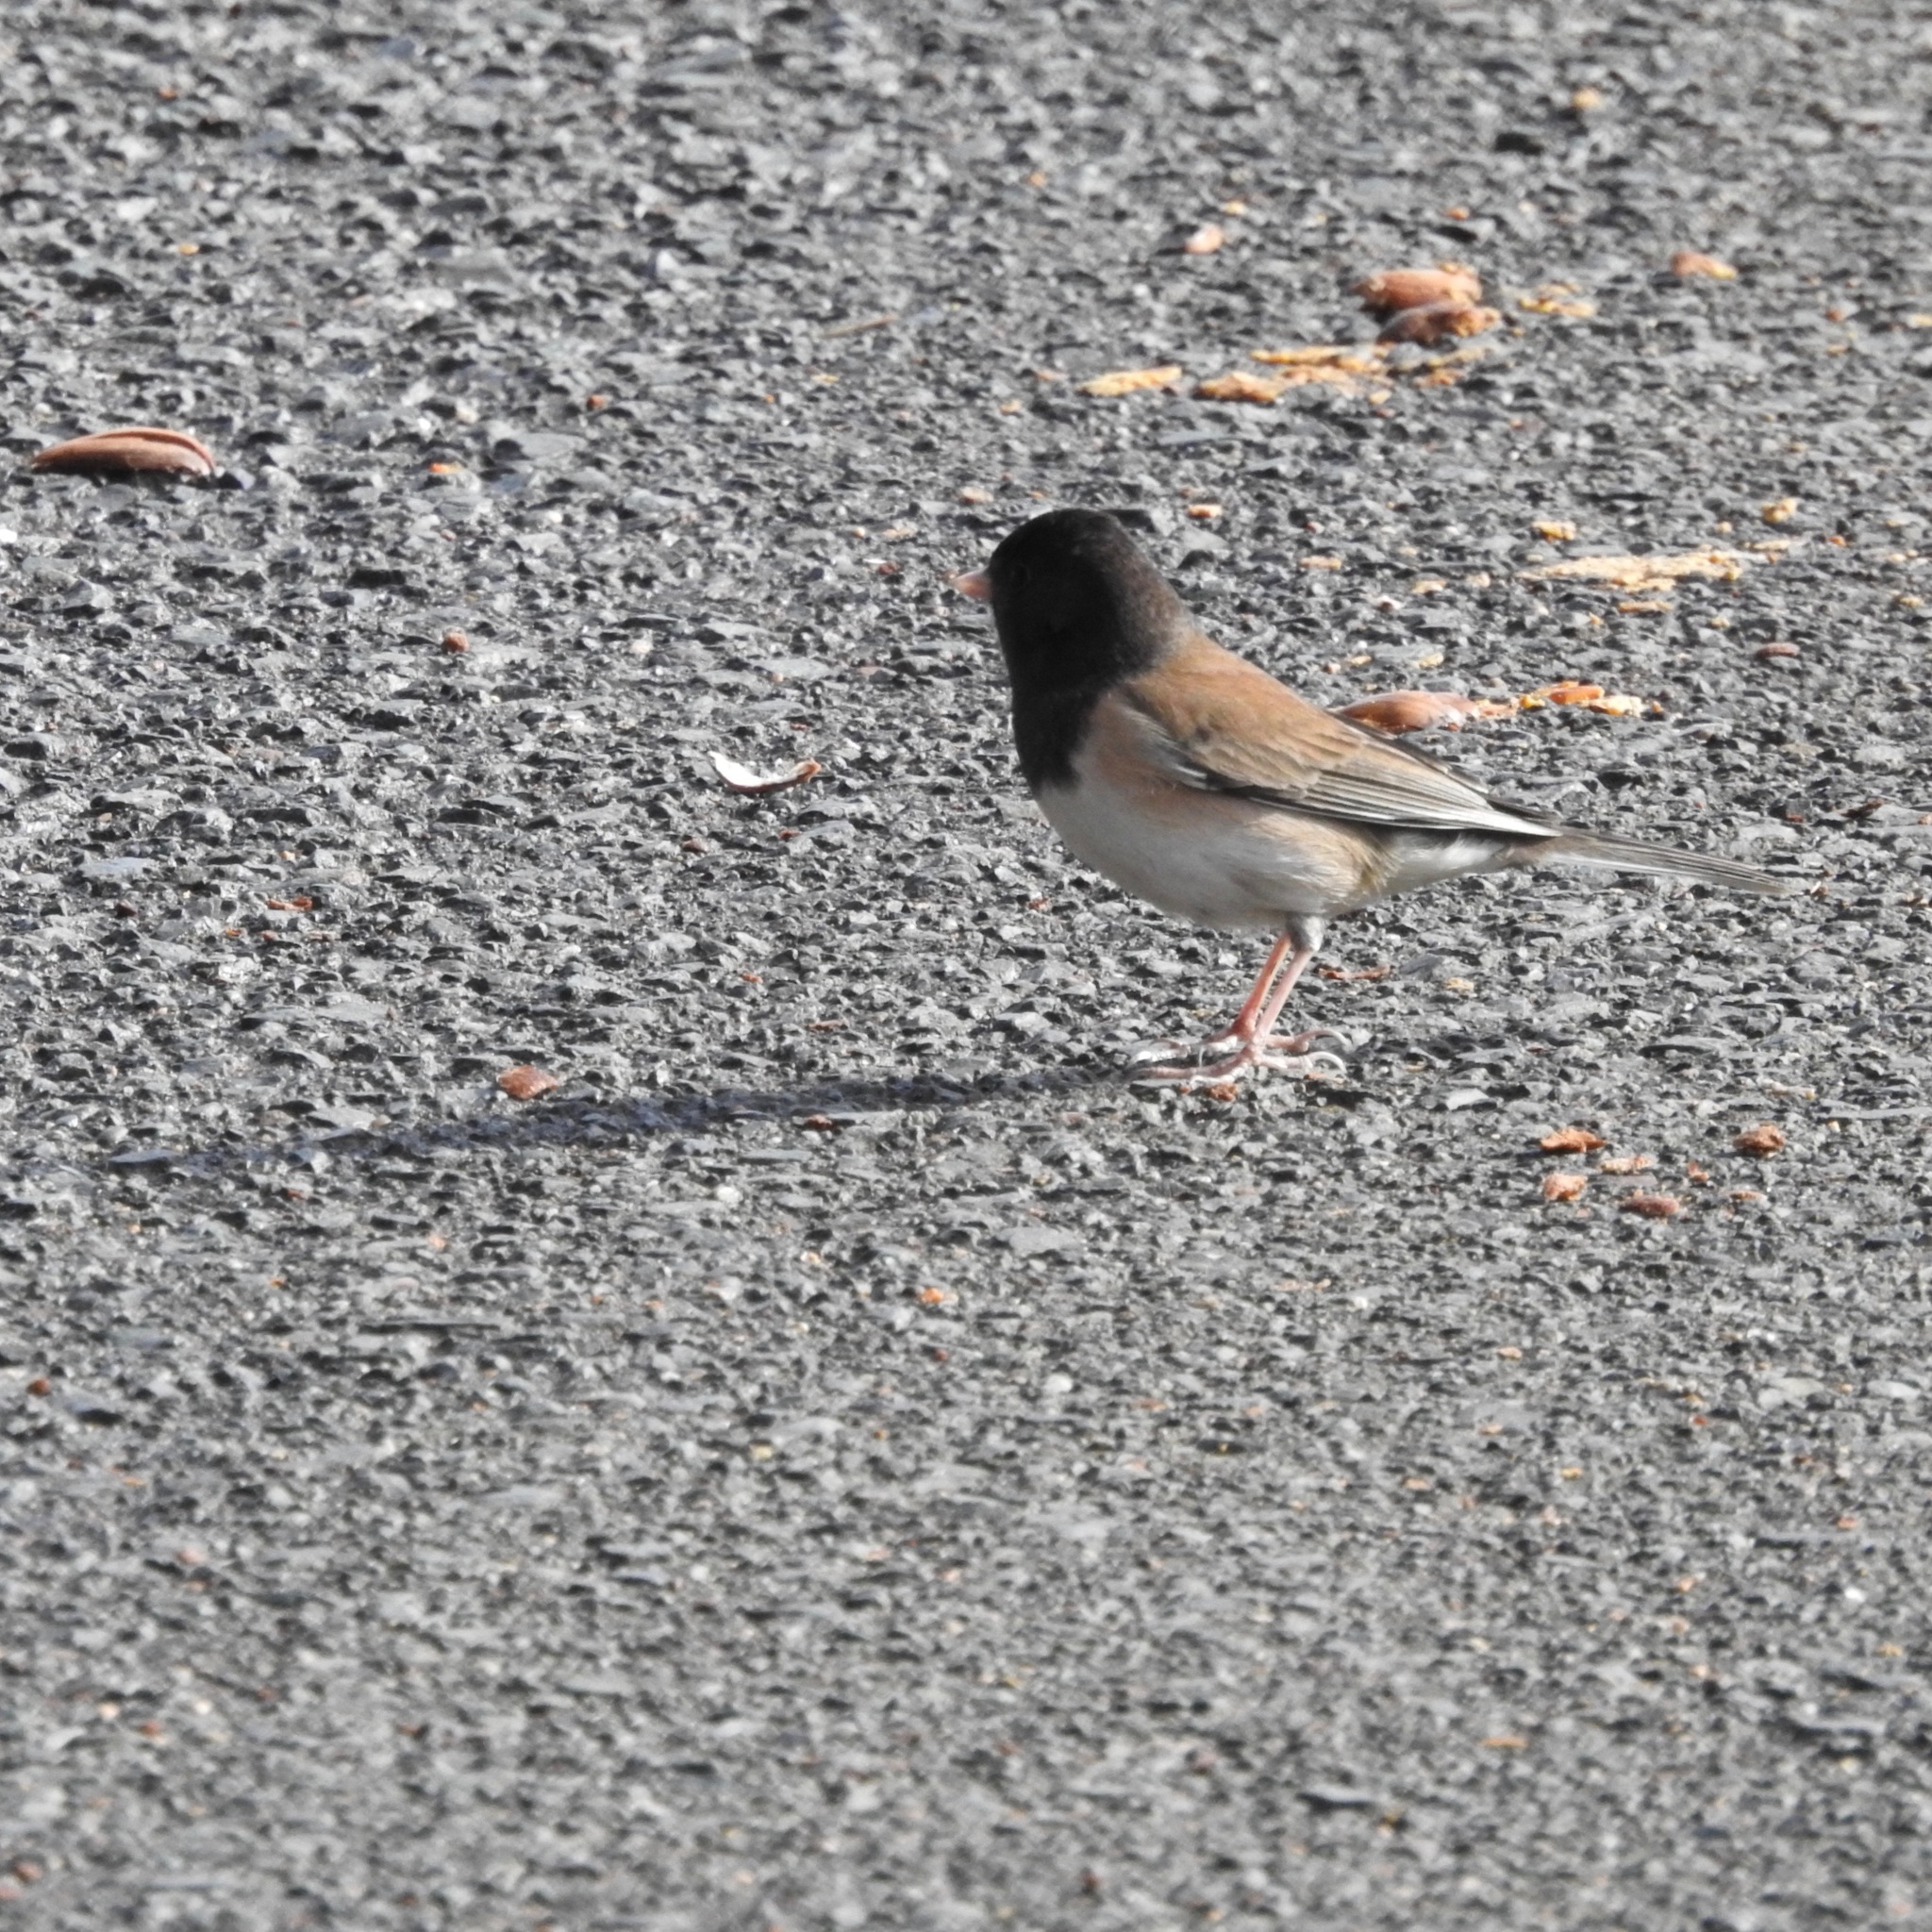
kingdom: Animalia
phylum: Chordata
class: Aves
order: Passeriformes
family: Passerellidae
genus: Junco
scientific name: Junco hyemalis
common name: Dark-eyed junco
